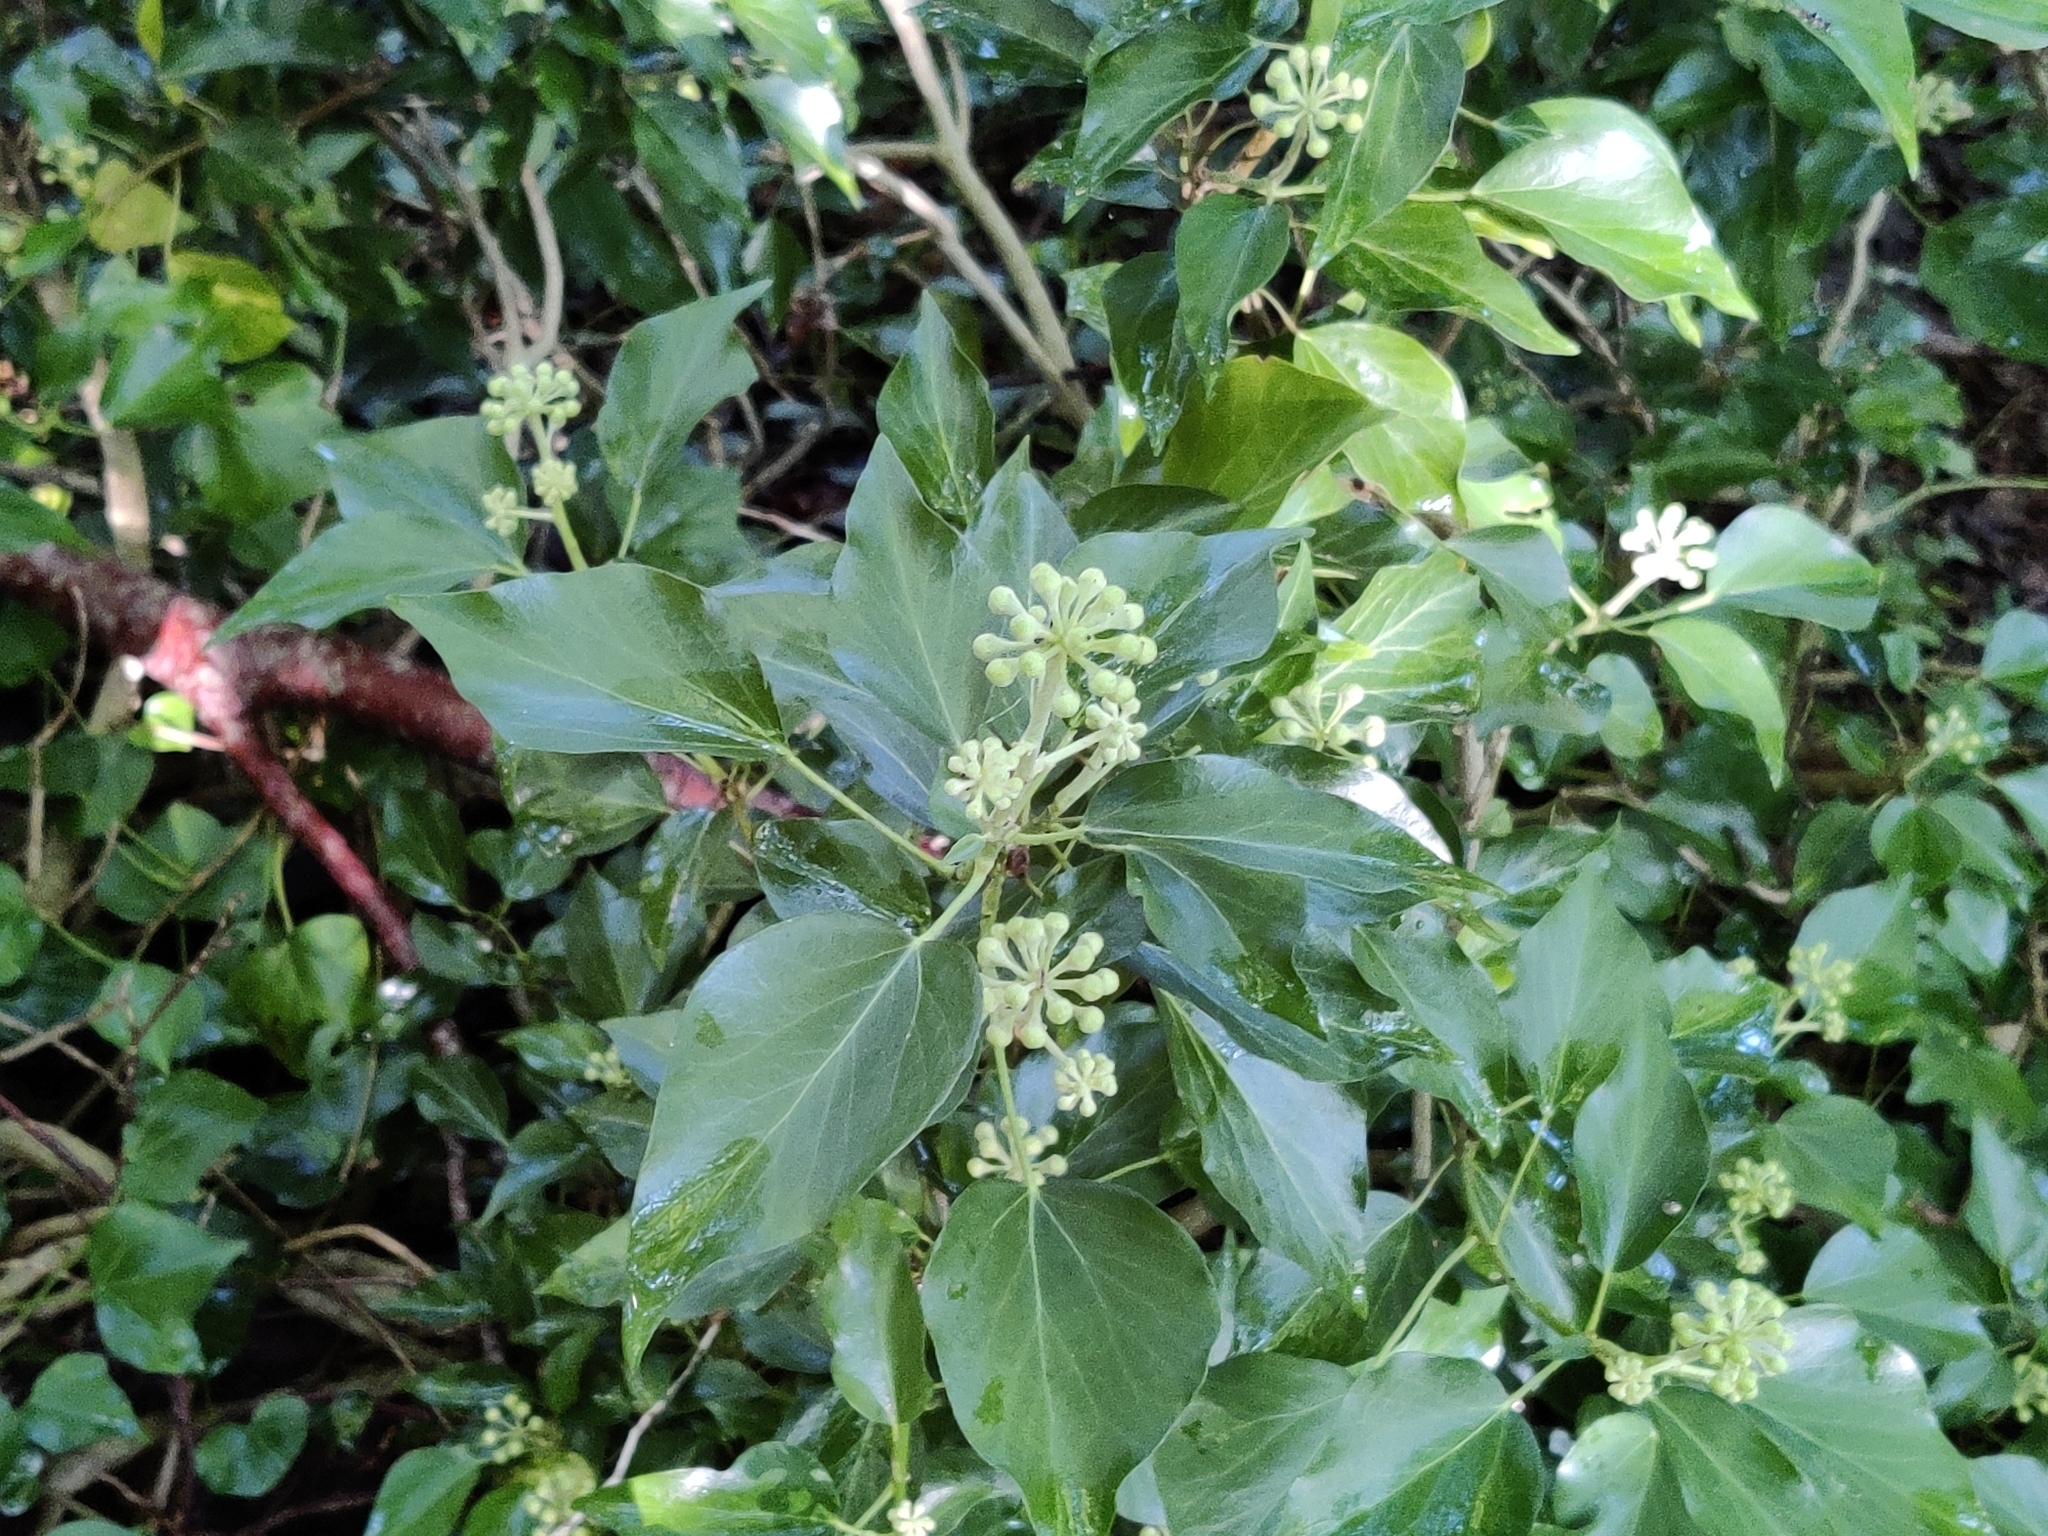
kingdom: Plantae
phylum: Tracheophyta
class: Magnoliopsida
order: Apiales
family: Araliaceae
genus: Hedera
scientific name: Hedera helix
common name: Ivy
